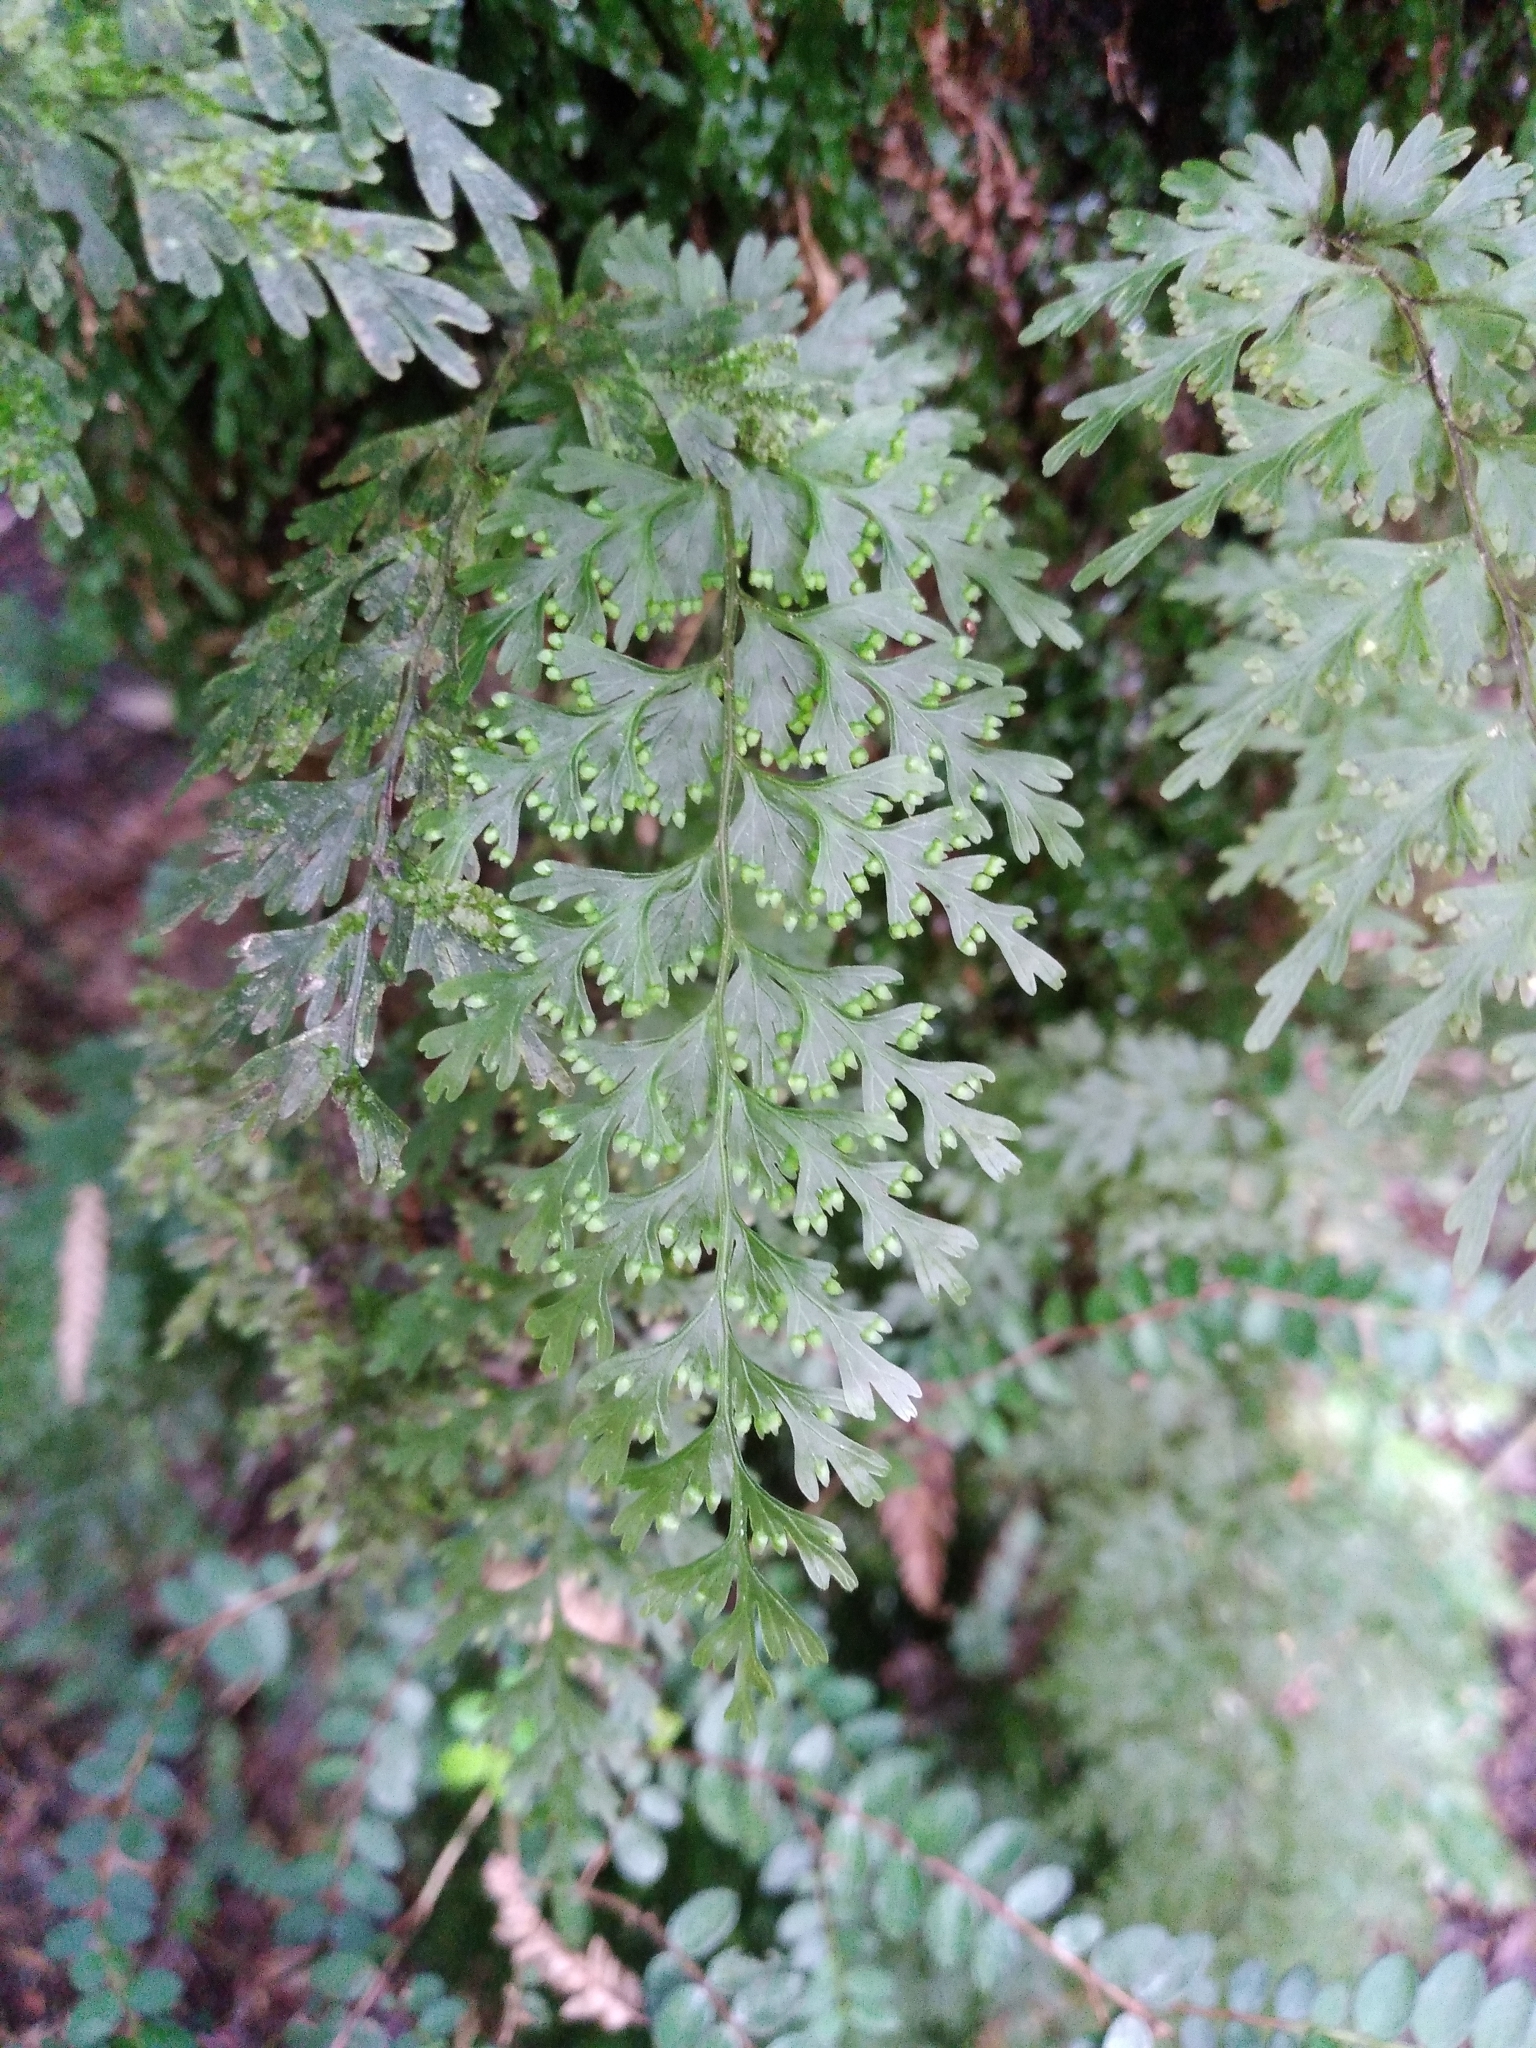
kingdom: Plantae
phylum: Tracheophyta
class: Polypodiopsida
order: Hymenophyllales
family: Hymenophyllaceae
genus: Hymenophyllum
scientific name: Hymenophyllum demissum
